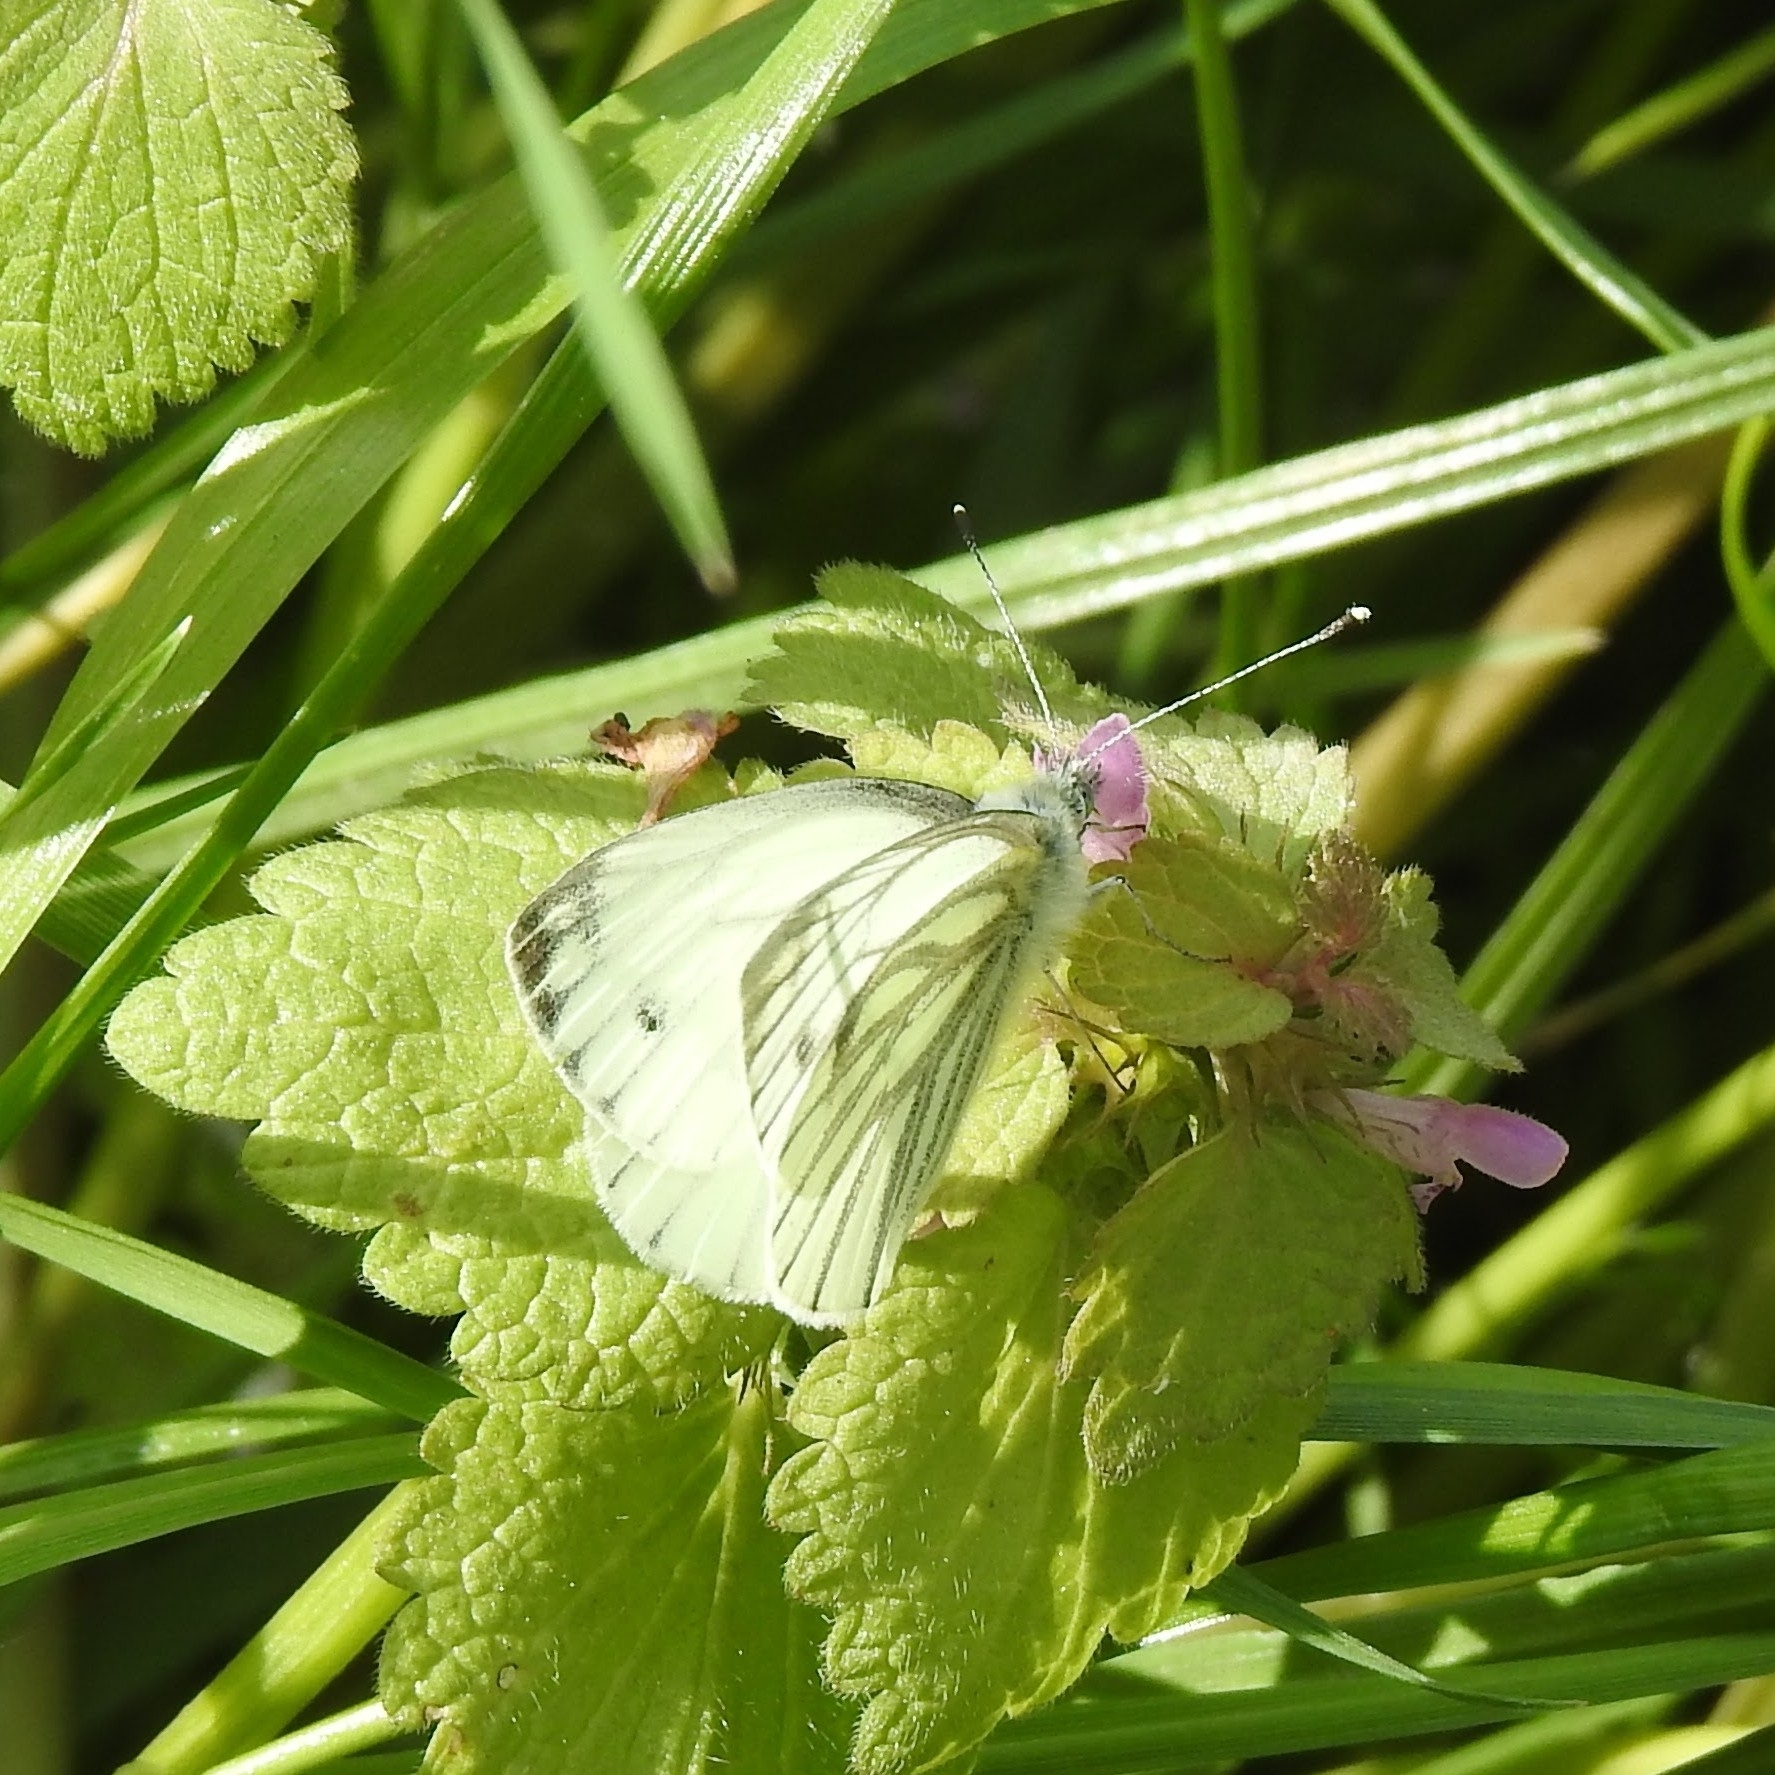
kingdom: Animalia
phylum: Arthropoda
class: Insecta
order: Lepidoptera
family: Pieridae
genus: Pieris
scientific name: Pieris napi
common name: Green-veined white
